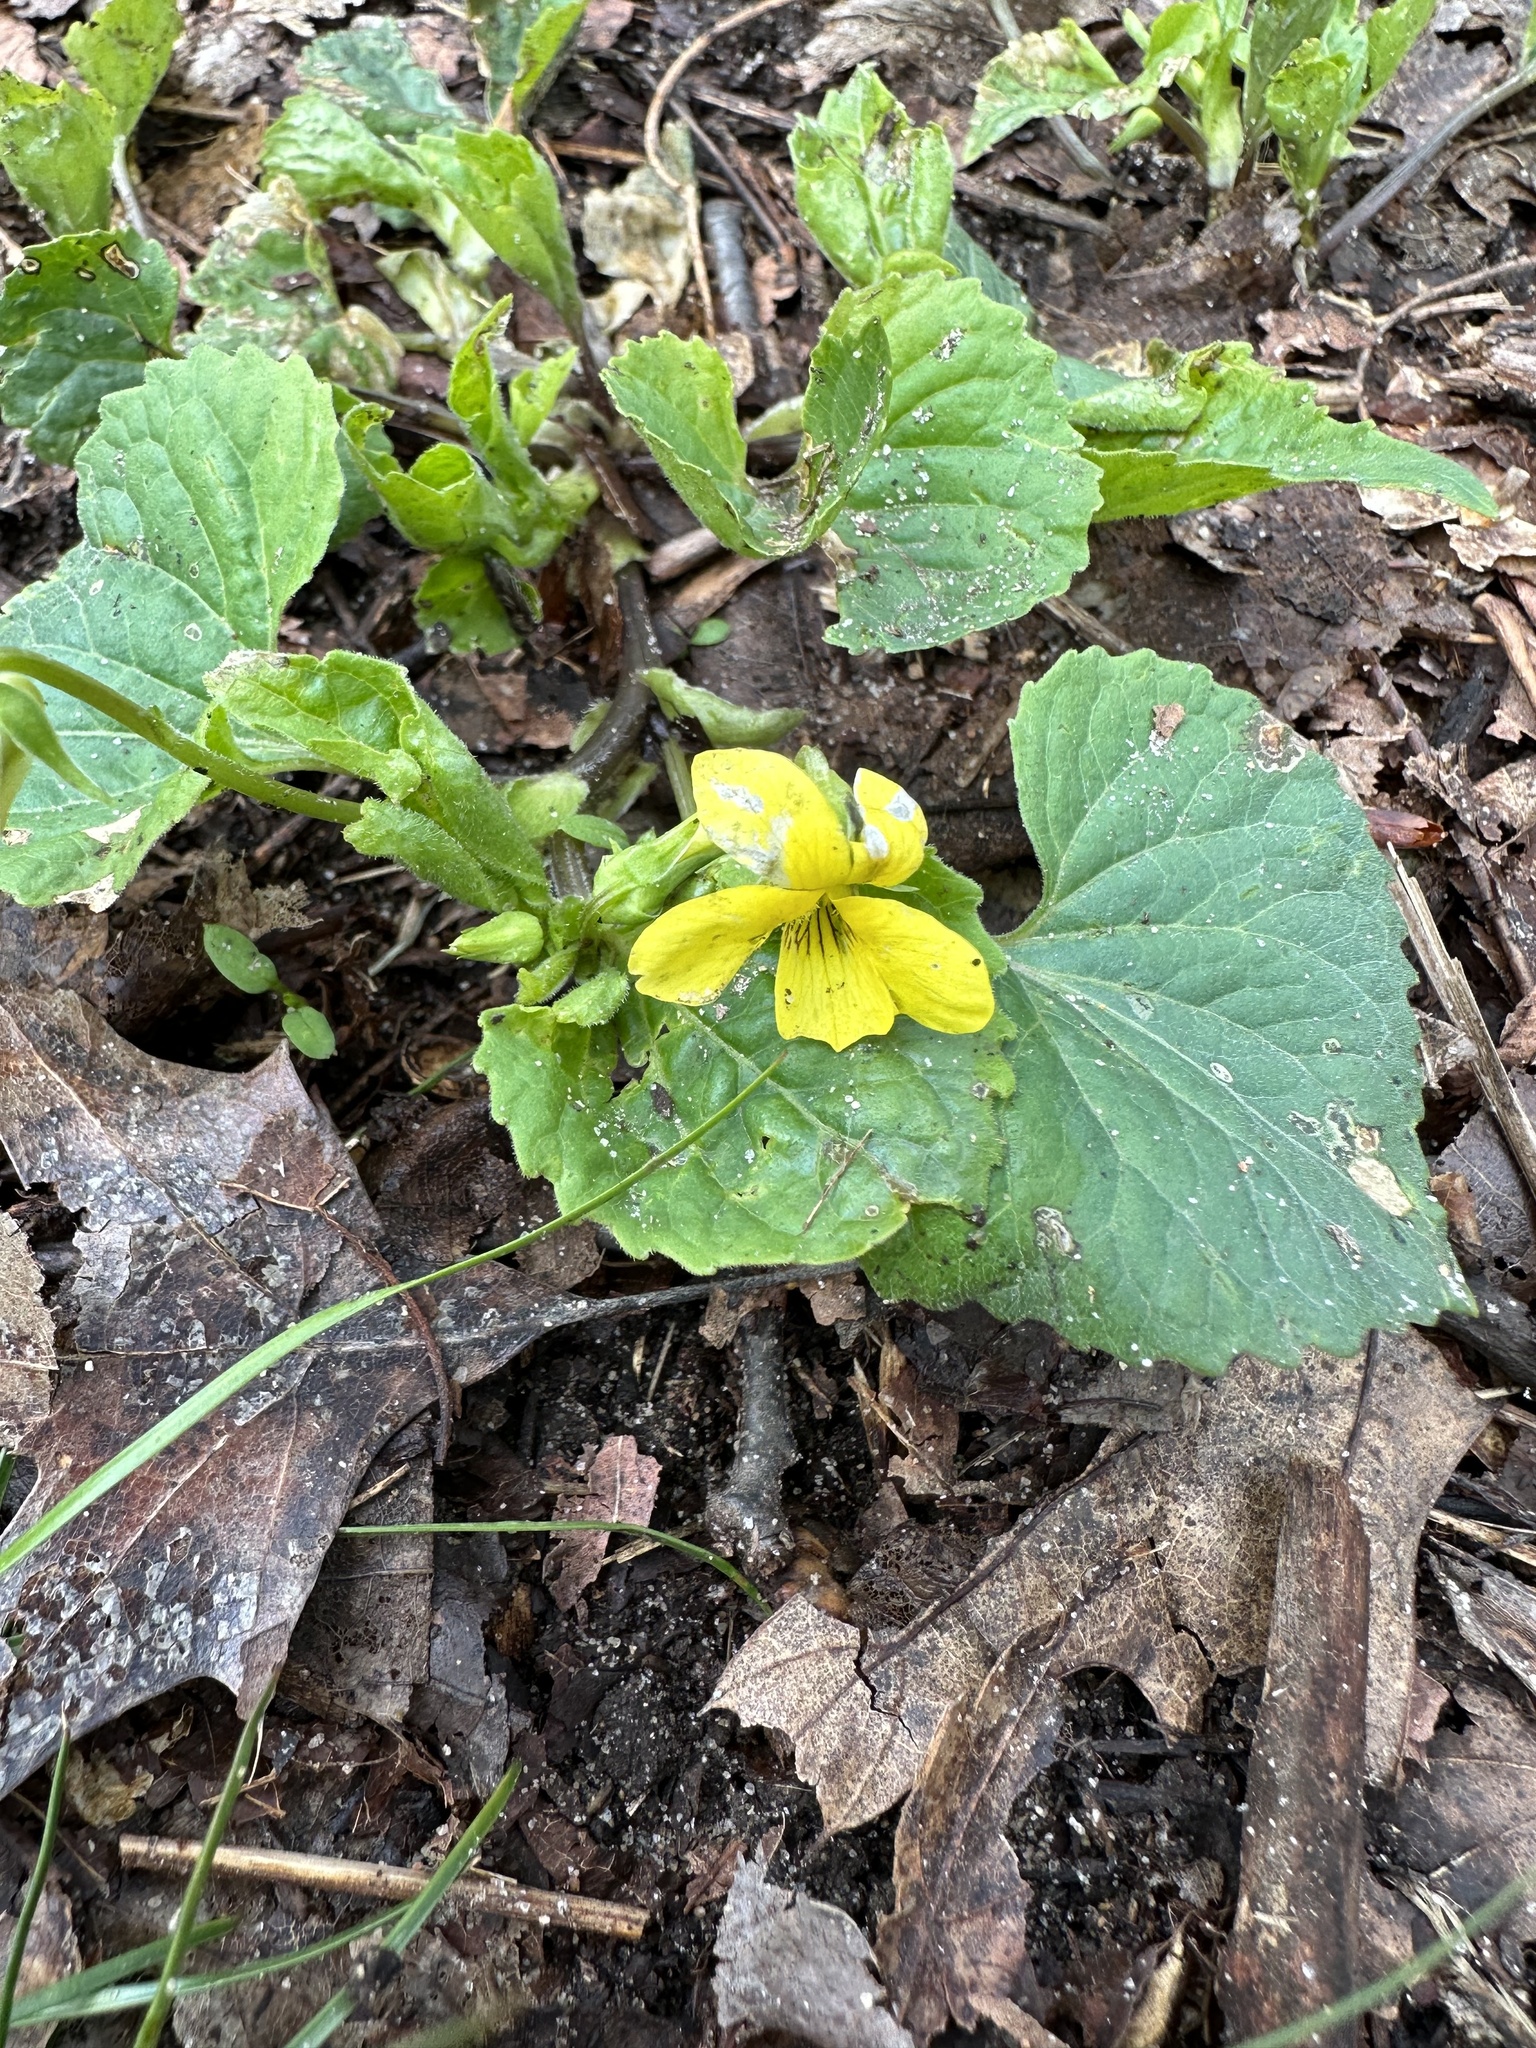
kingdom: Plantae
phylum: Tracheophyta
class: Magnoliopsida
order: Malpighiales
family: Violaceae
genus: Viola
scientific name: Viola eriocarpa
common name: Smooth yellow violet
